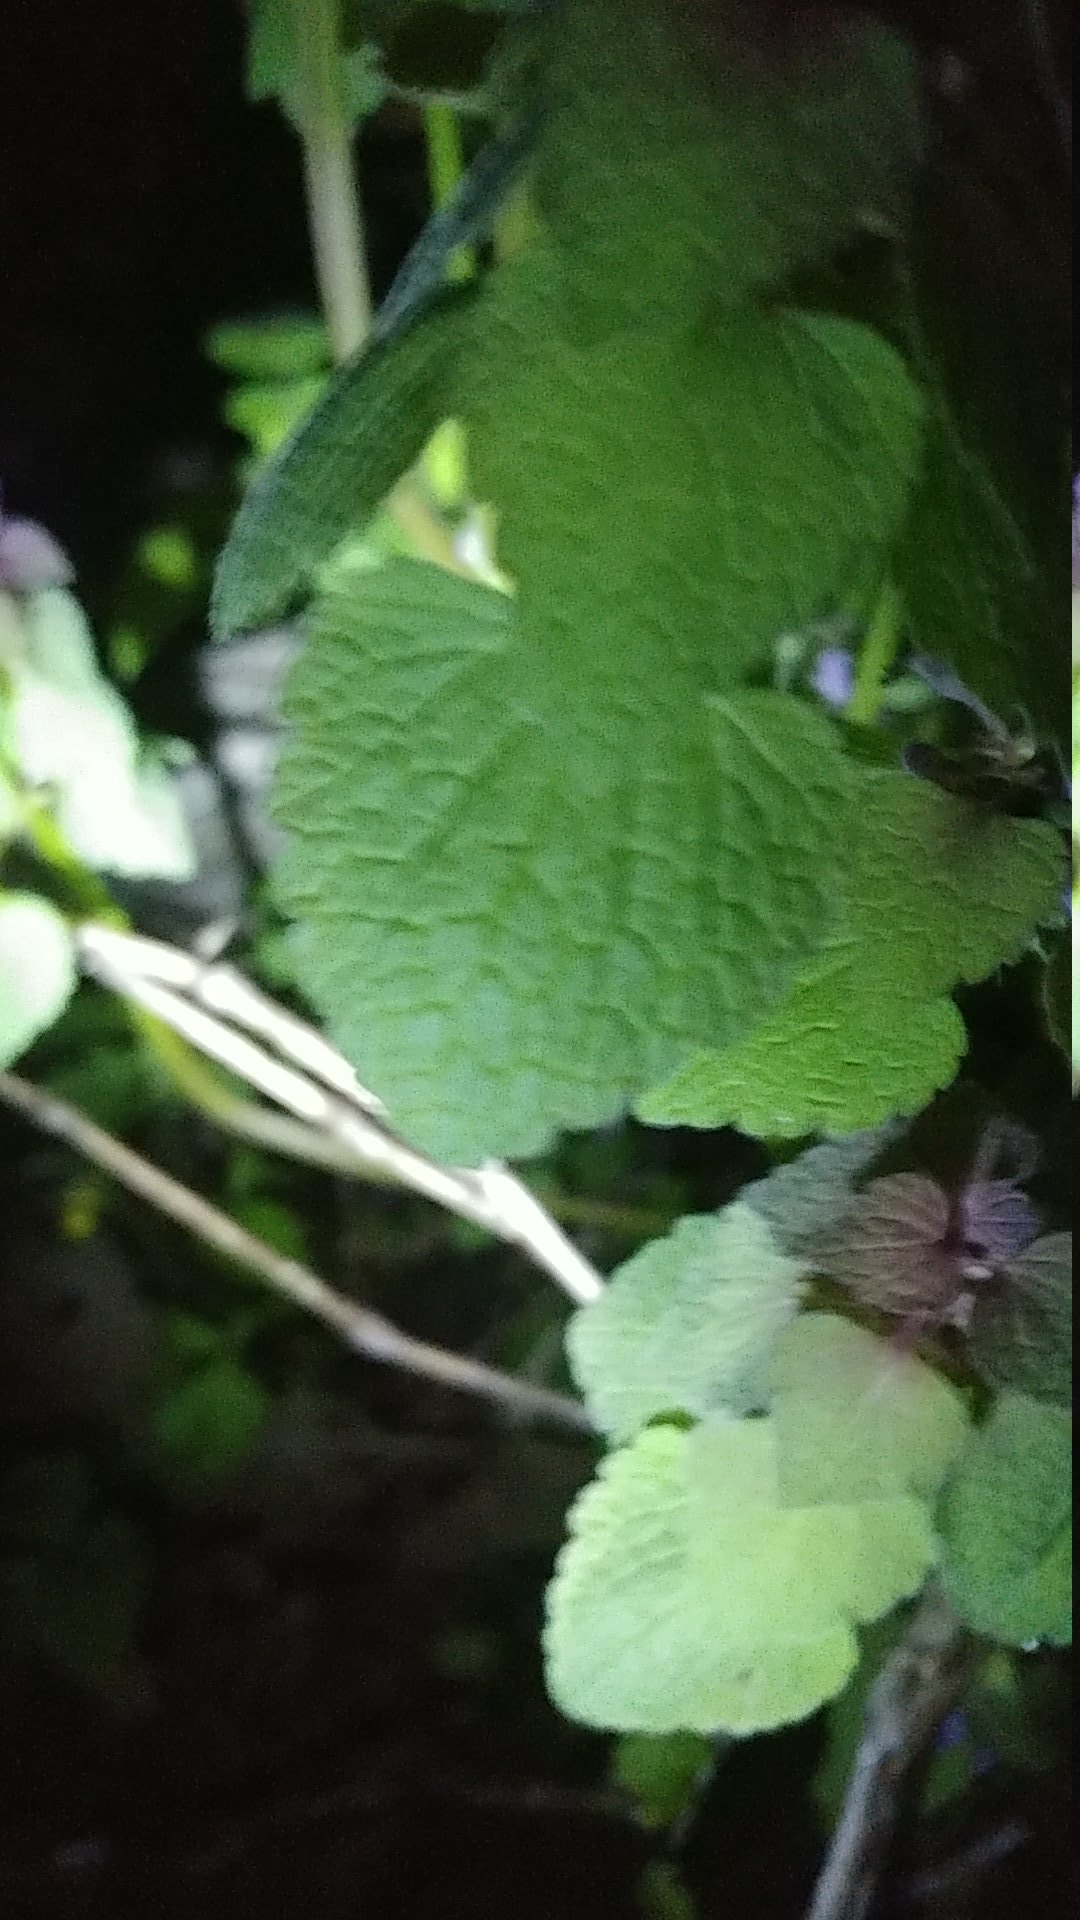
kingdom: Plantae
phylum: Tracheophyta
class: Magnoliopsida
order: Lamiales
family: Lamiaceae
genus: Lamium
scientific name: Lamium purpureum
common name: Red dead-nettle
